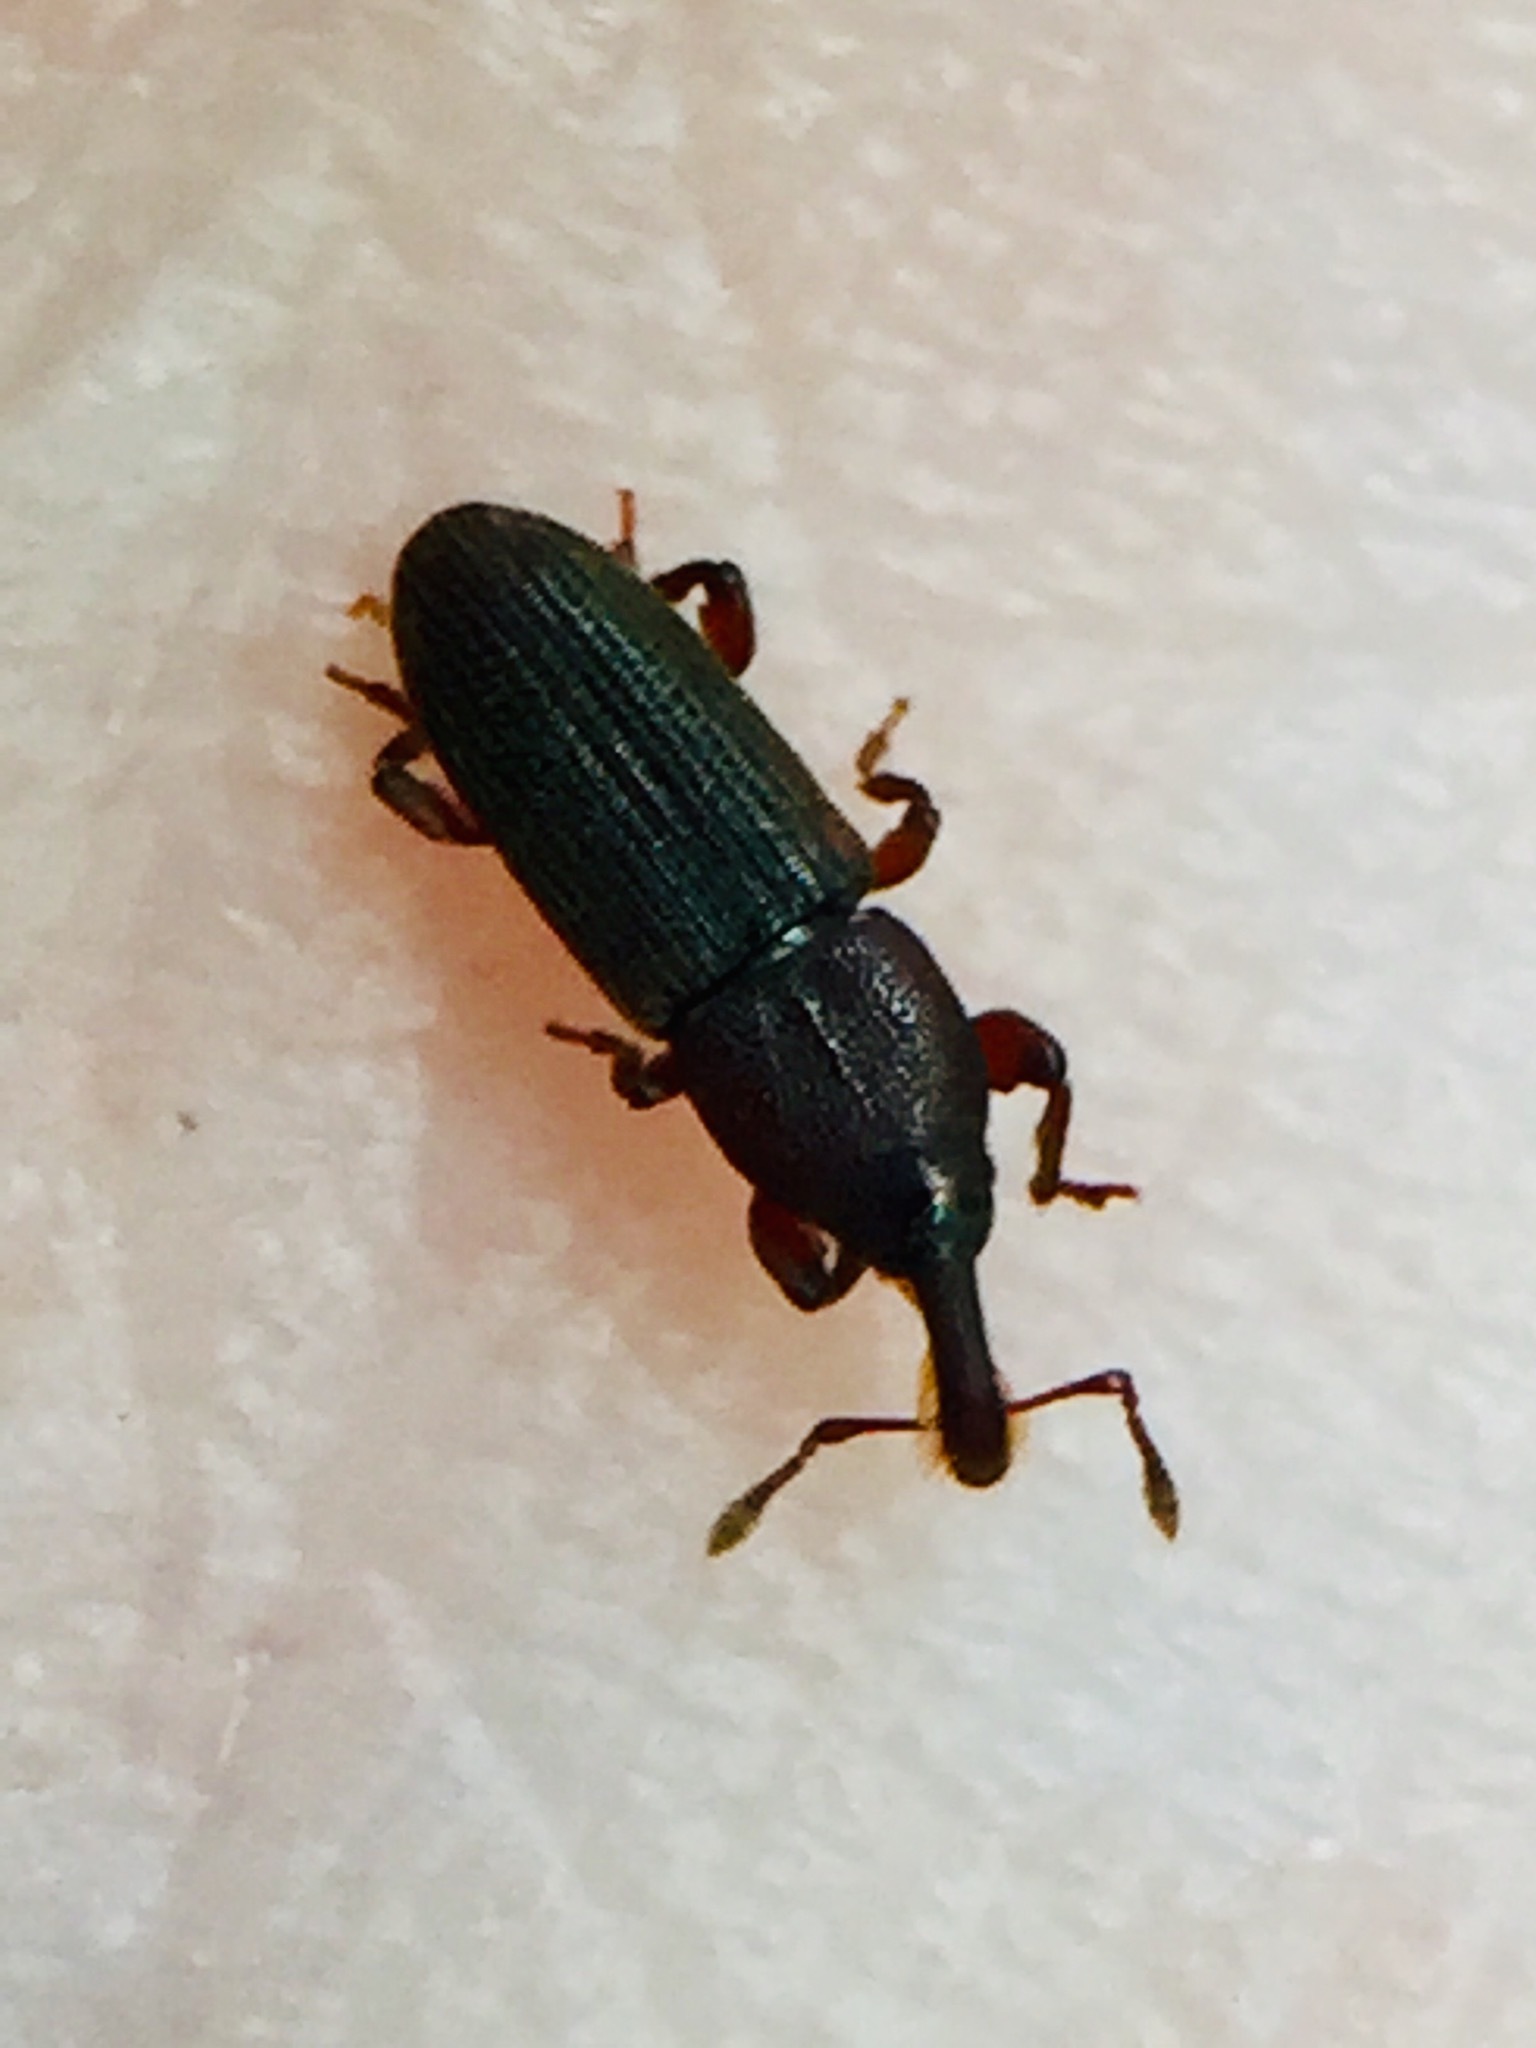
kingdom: Animalia
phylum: Arthropoda
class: Insecta
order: Coleoptera
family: Curculionidae
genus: Pogonorhinus
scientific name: Pogonorhinus opacus
